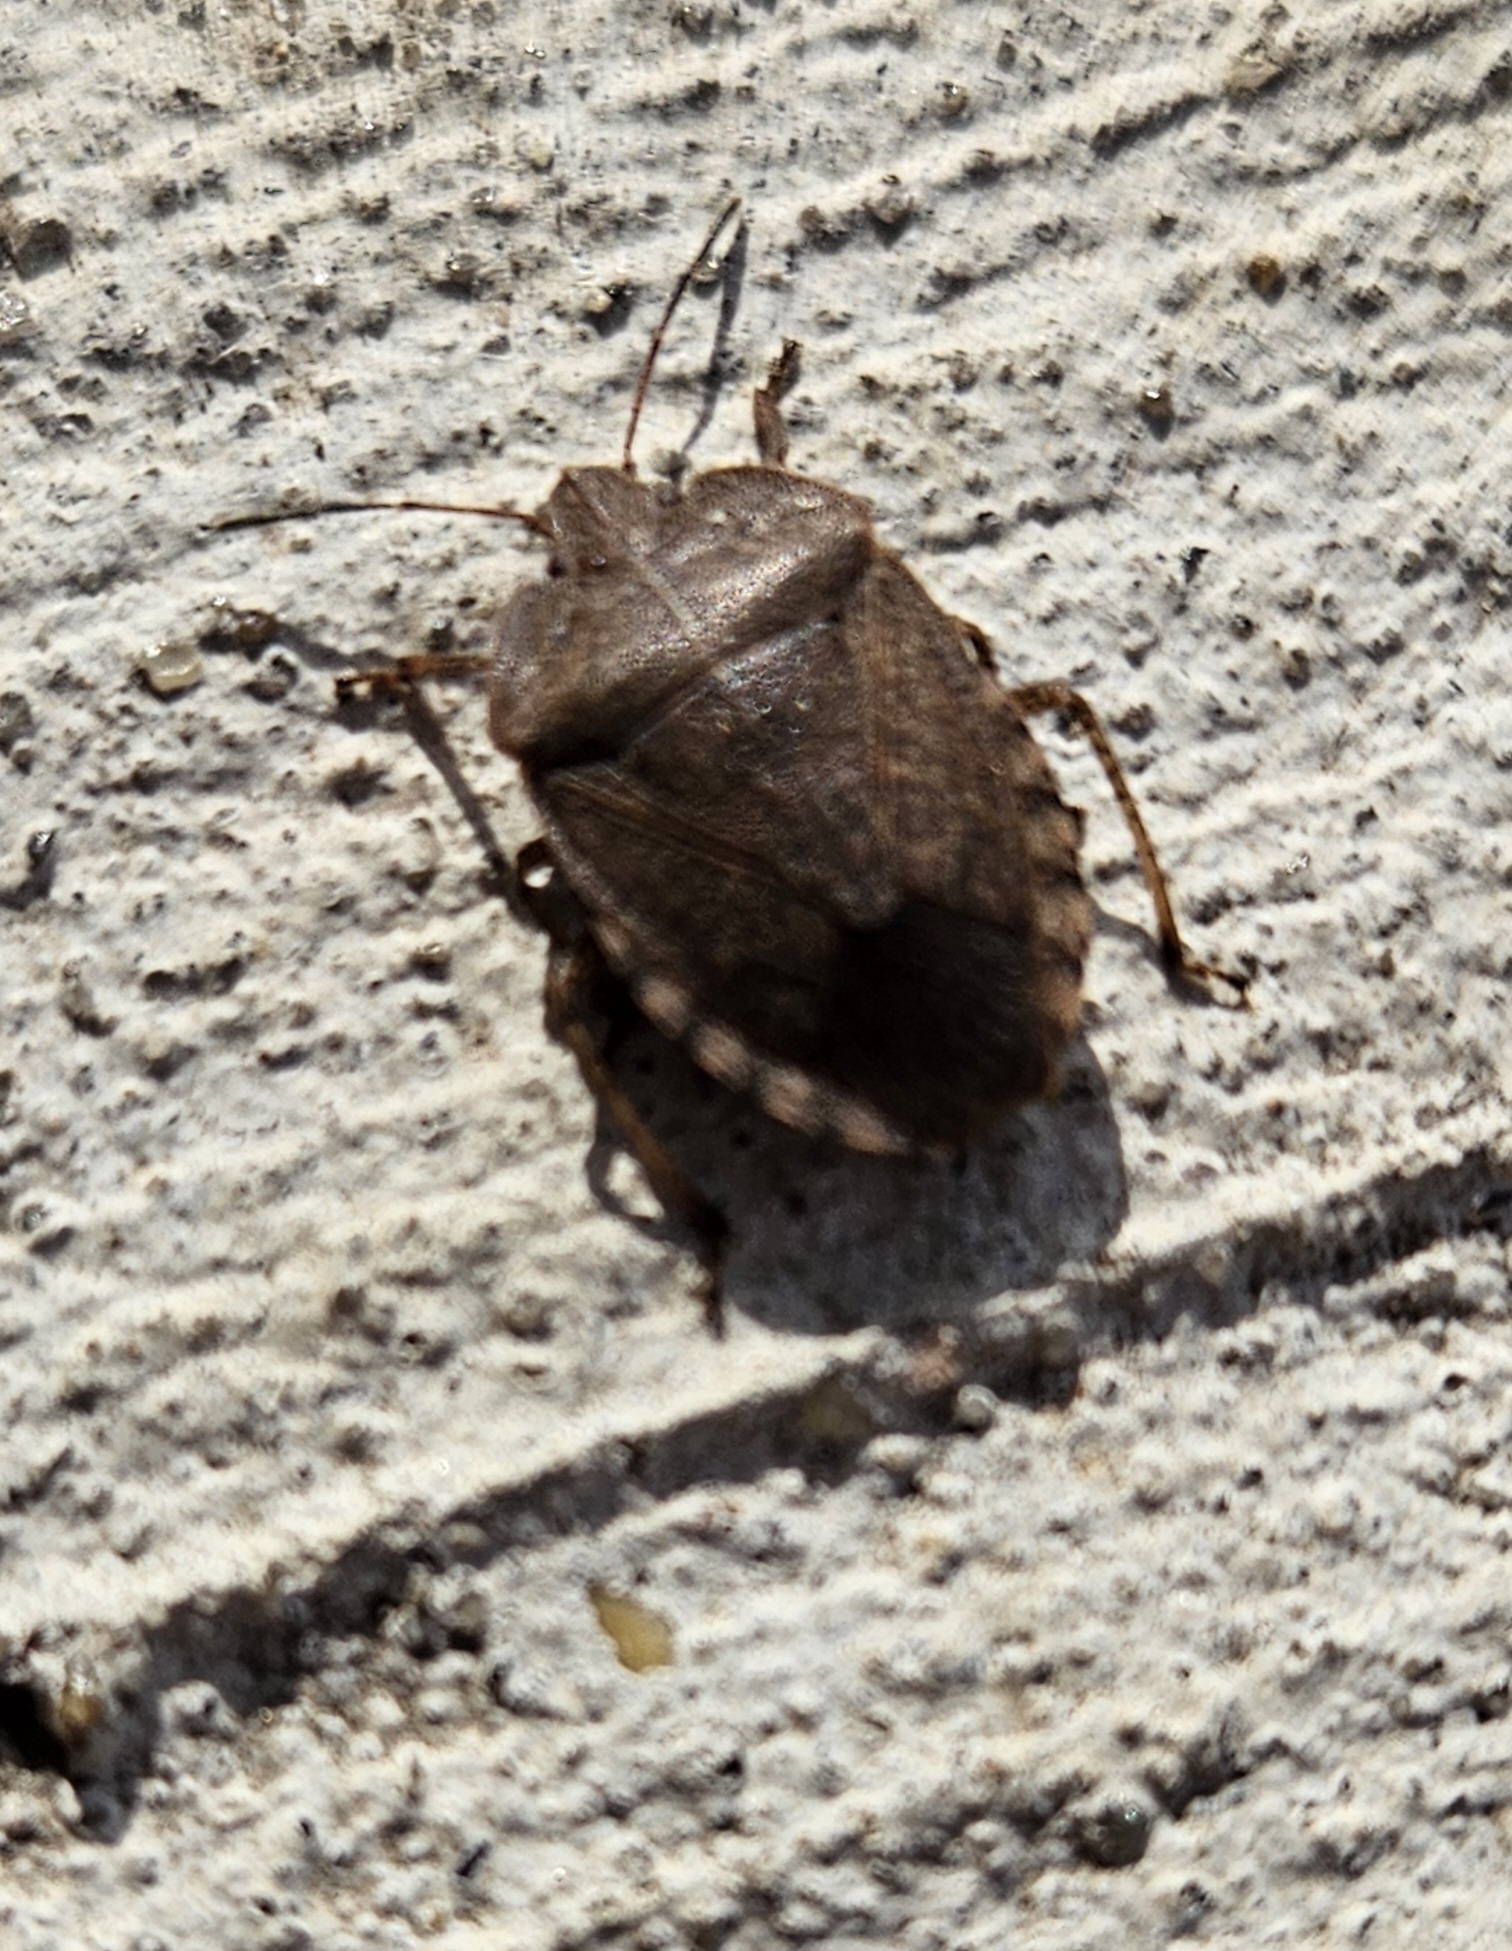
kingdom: Animalia
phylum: Arthropoda
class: Insecta
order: Hemiptera
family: Pentatomidae
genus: Menecles
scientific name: Menecles insertus
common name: Elf shoe stink bug
